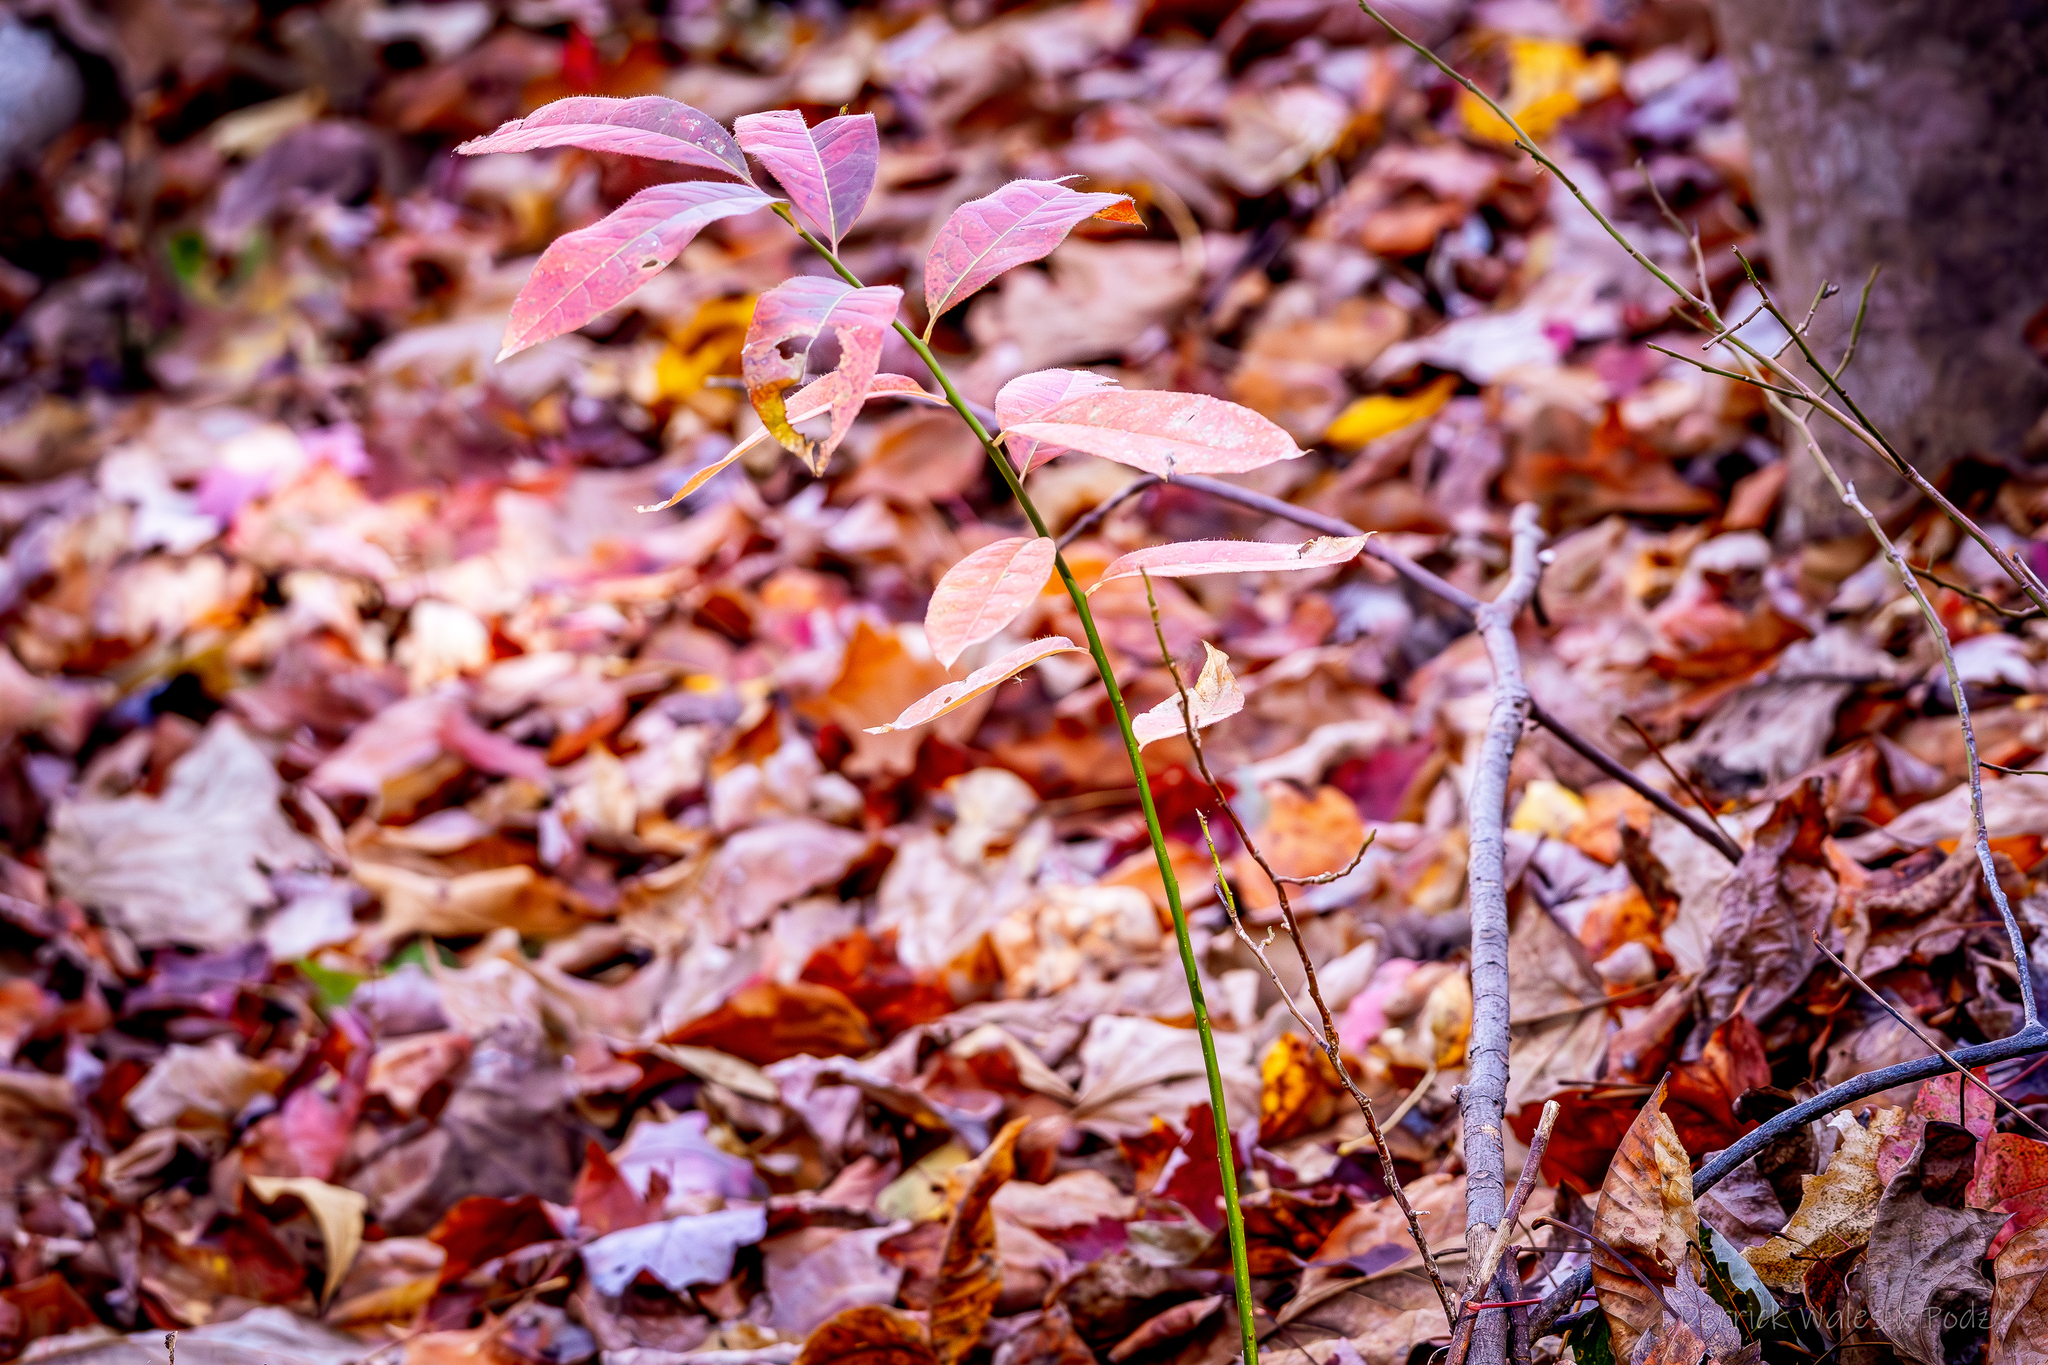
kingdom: Plantae
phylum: Tracheophyta
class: Magnoliopsida
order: Ericales
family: Ericaceae
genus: Oxydendrum
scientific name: Oxydendrum arboreum
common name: Sourwood
